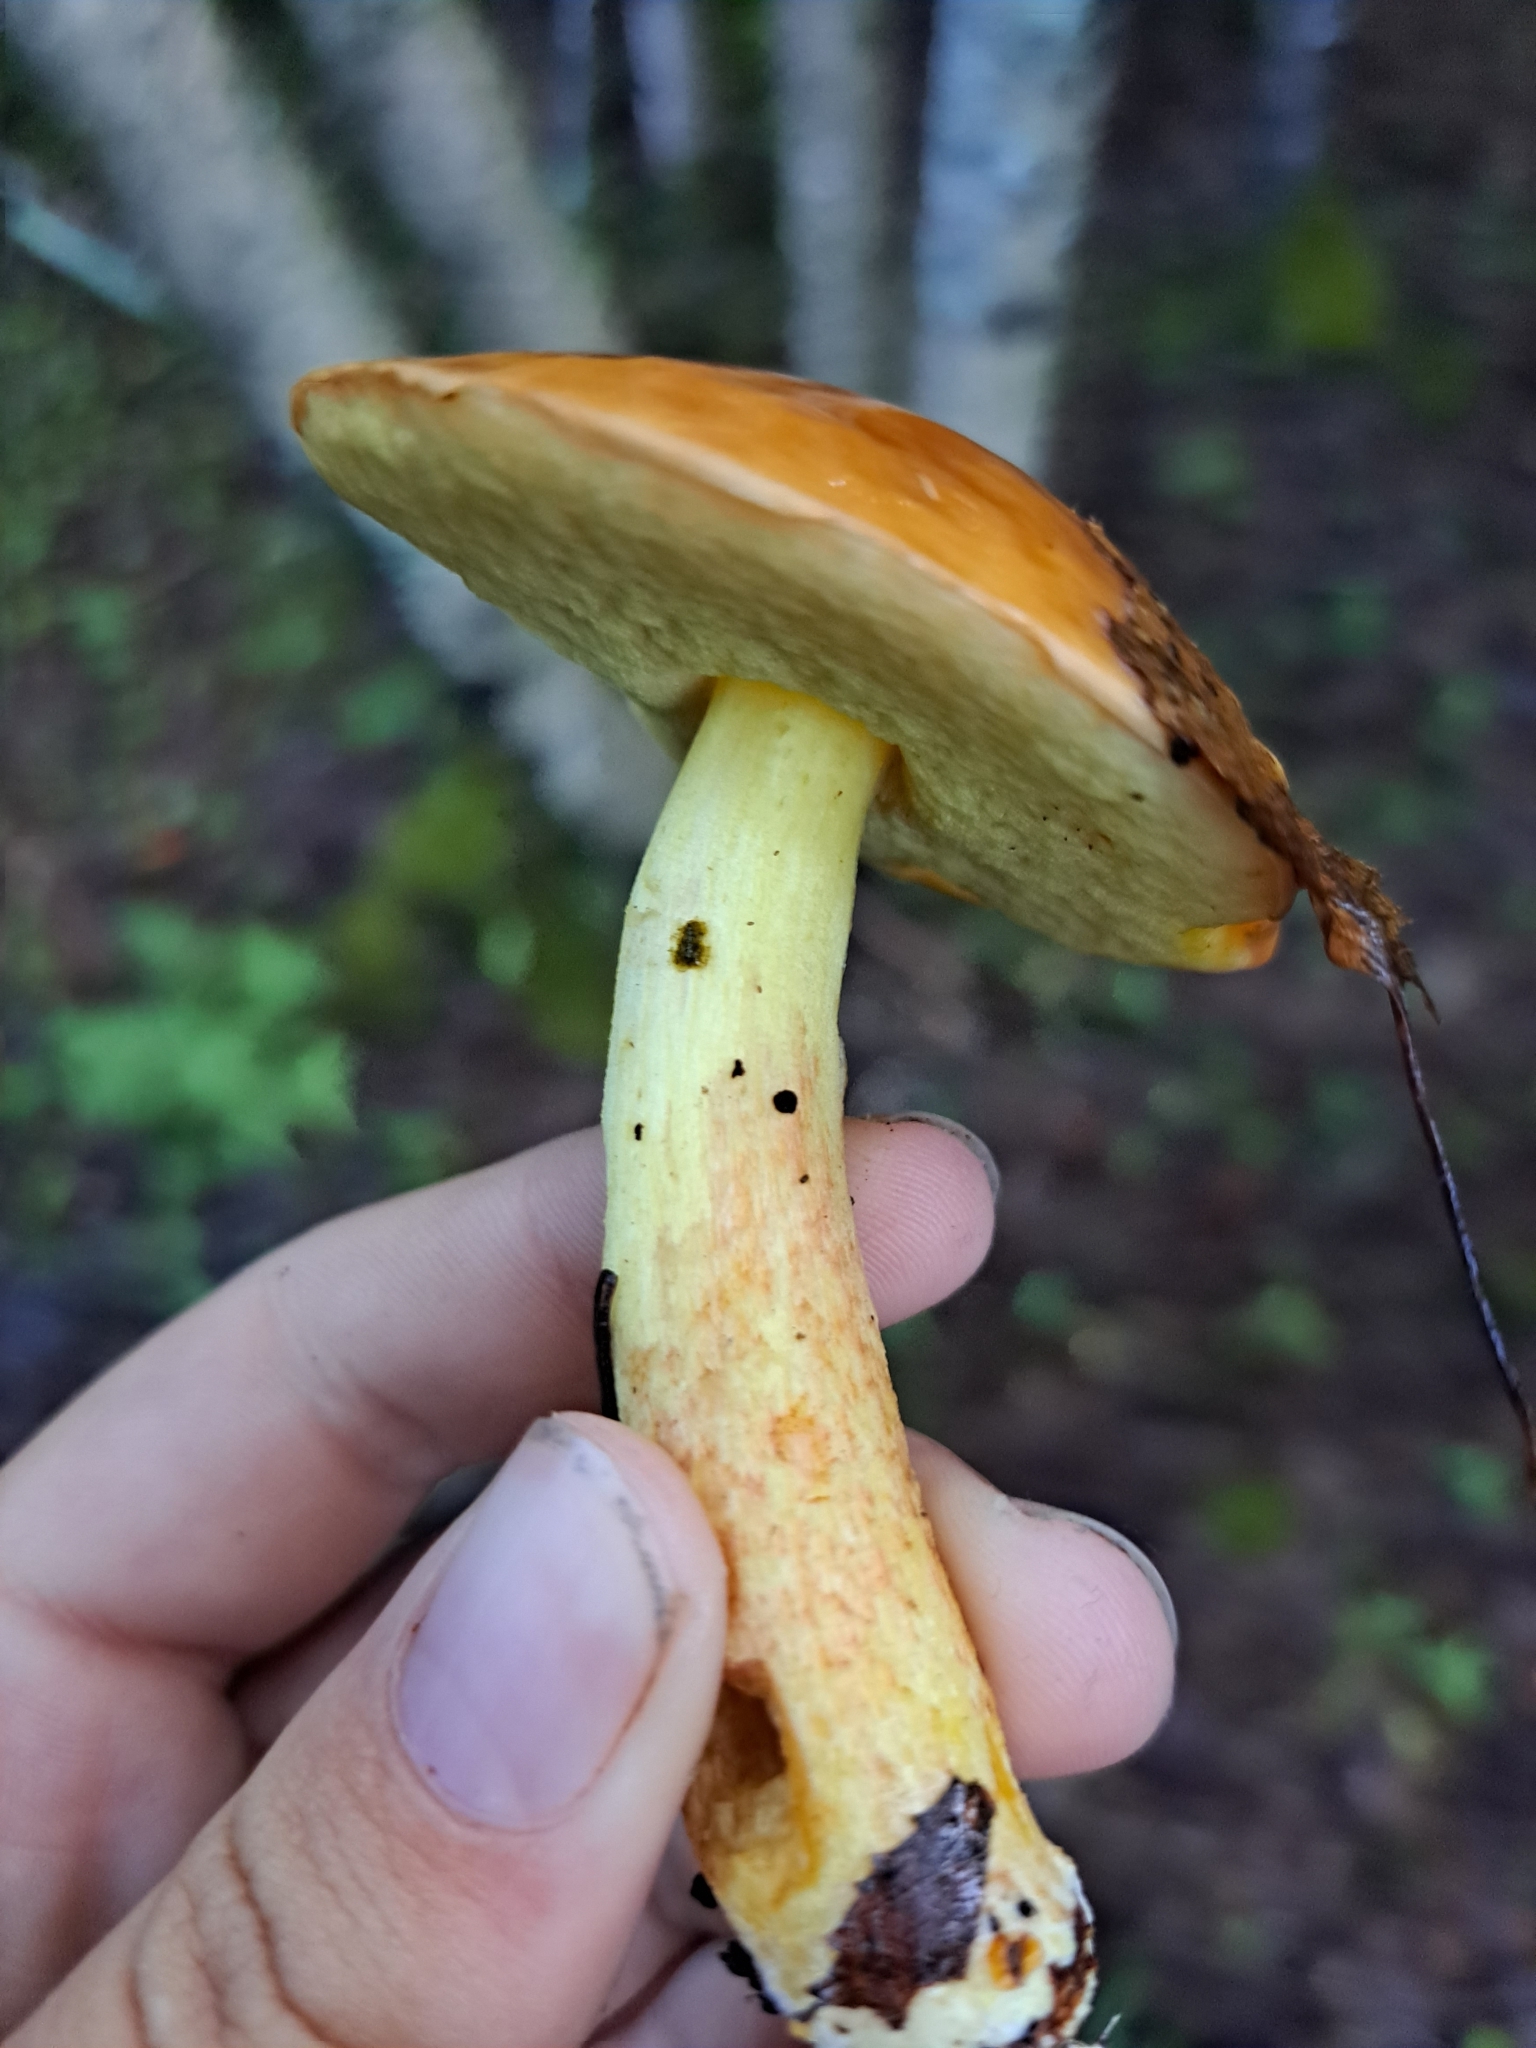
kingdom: Fungi
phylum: Basidiomycota
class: Agaricomycetes
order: Boletales
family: Boletaceae
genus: Hemileccinum
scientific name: Hemileccinum subglabripes
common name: Smoothish-stemmed bolete
